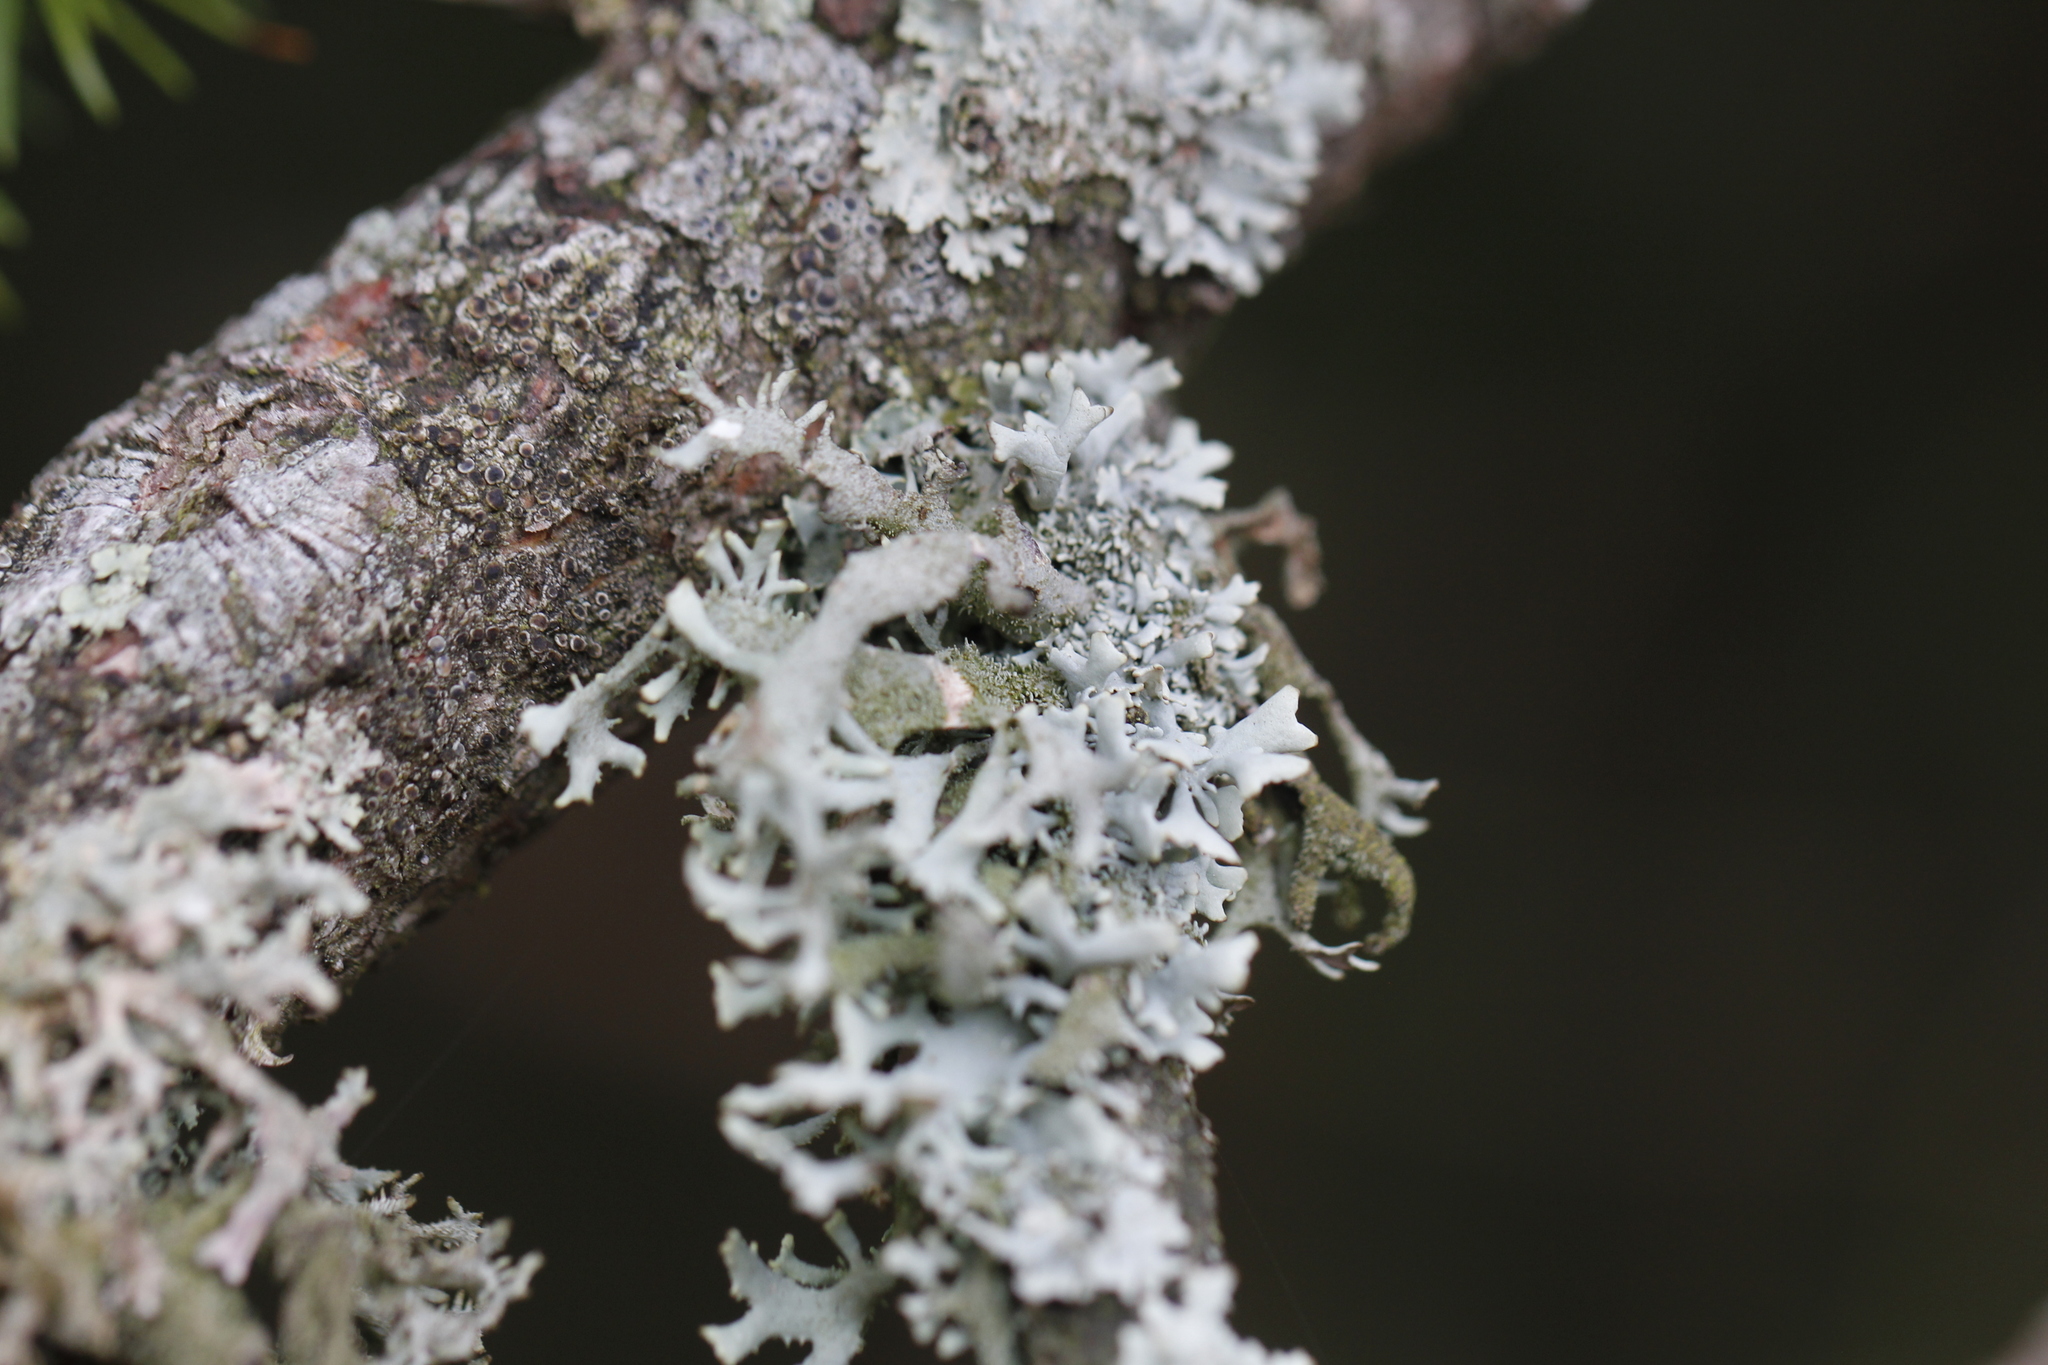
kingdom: Fungi
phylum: Ascomycota
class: Lecanoromycetes
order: Lecanorales
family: Parmeliaceae
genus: Pseudevernia
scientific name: Pseudevernia furfuracea
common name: Tree moss
